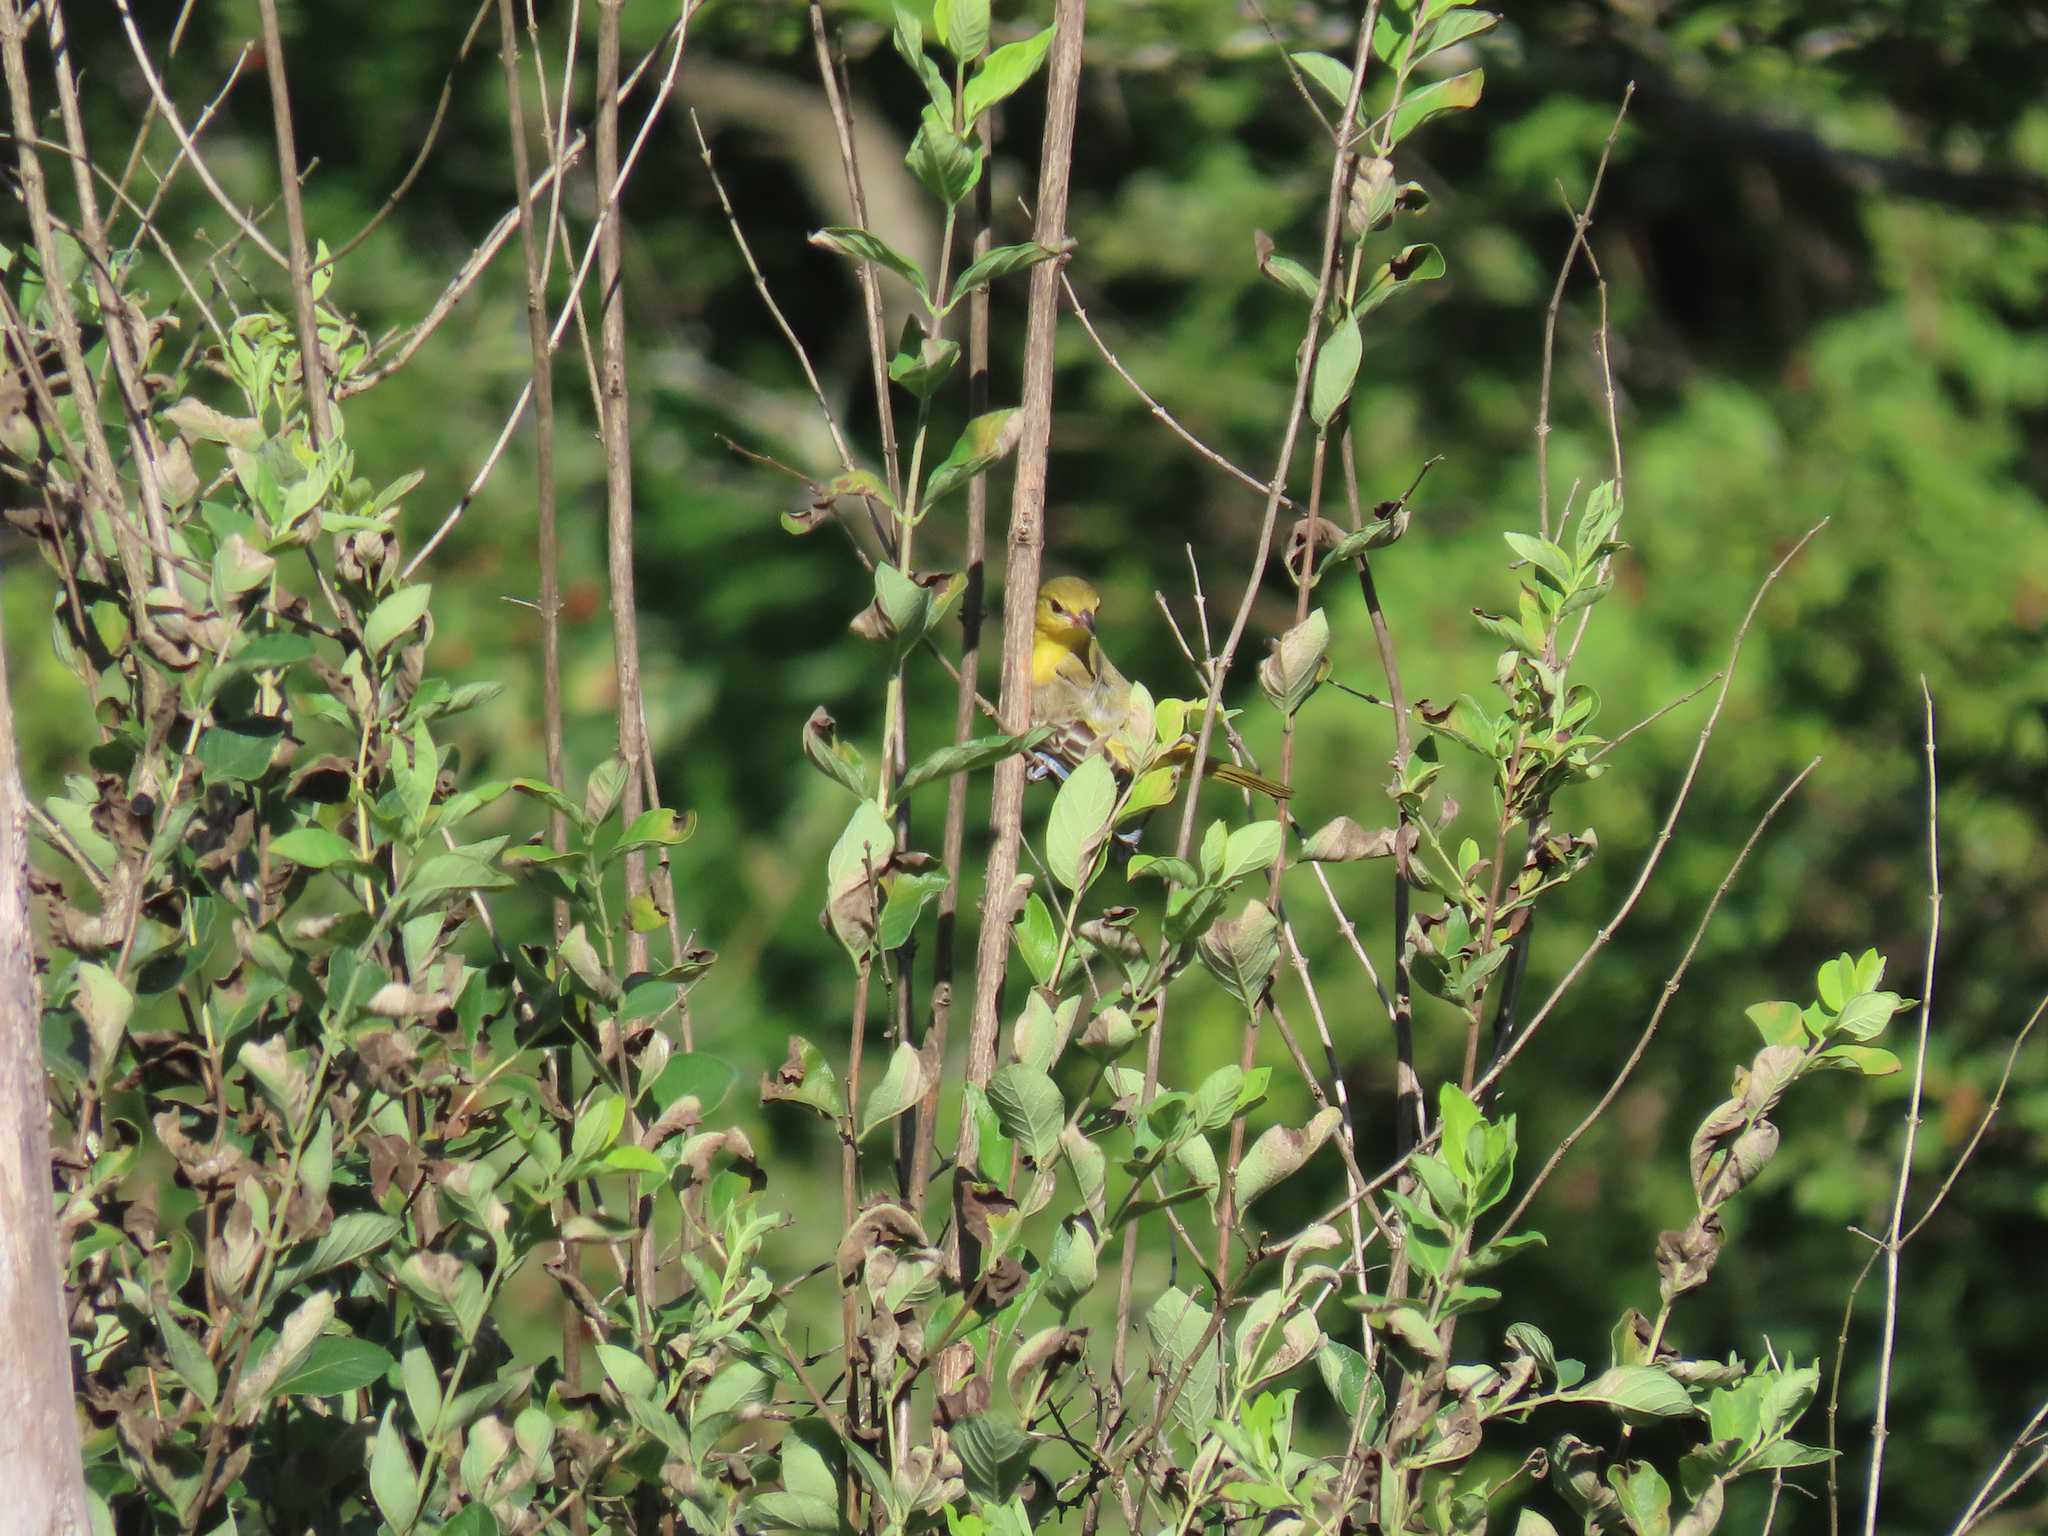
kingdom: Animalia
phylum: Chordata
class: Aves
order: Passeriformes
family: Icteridae
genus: Icterus
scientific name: Icterus spurius
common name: Orchard oriole
